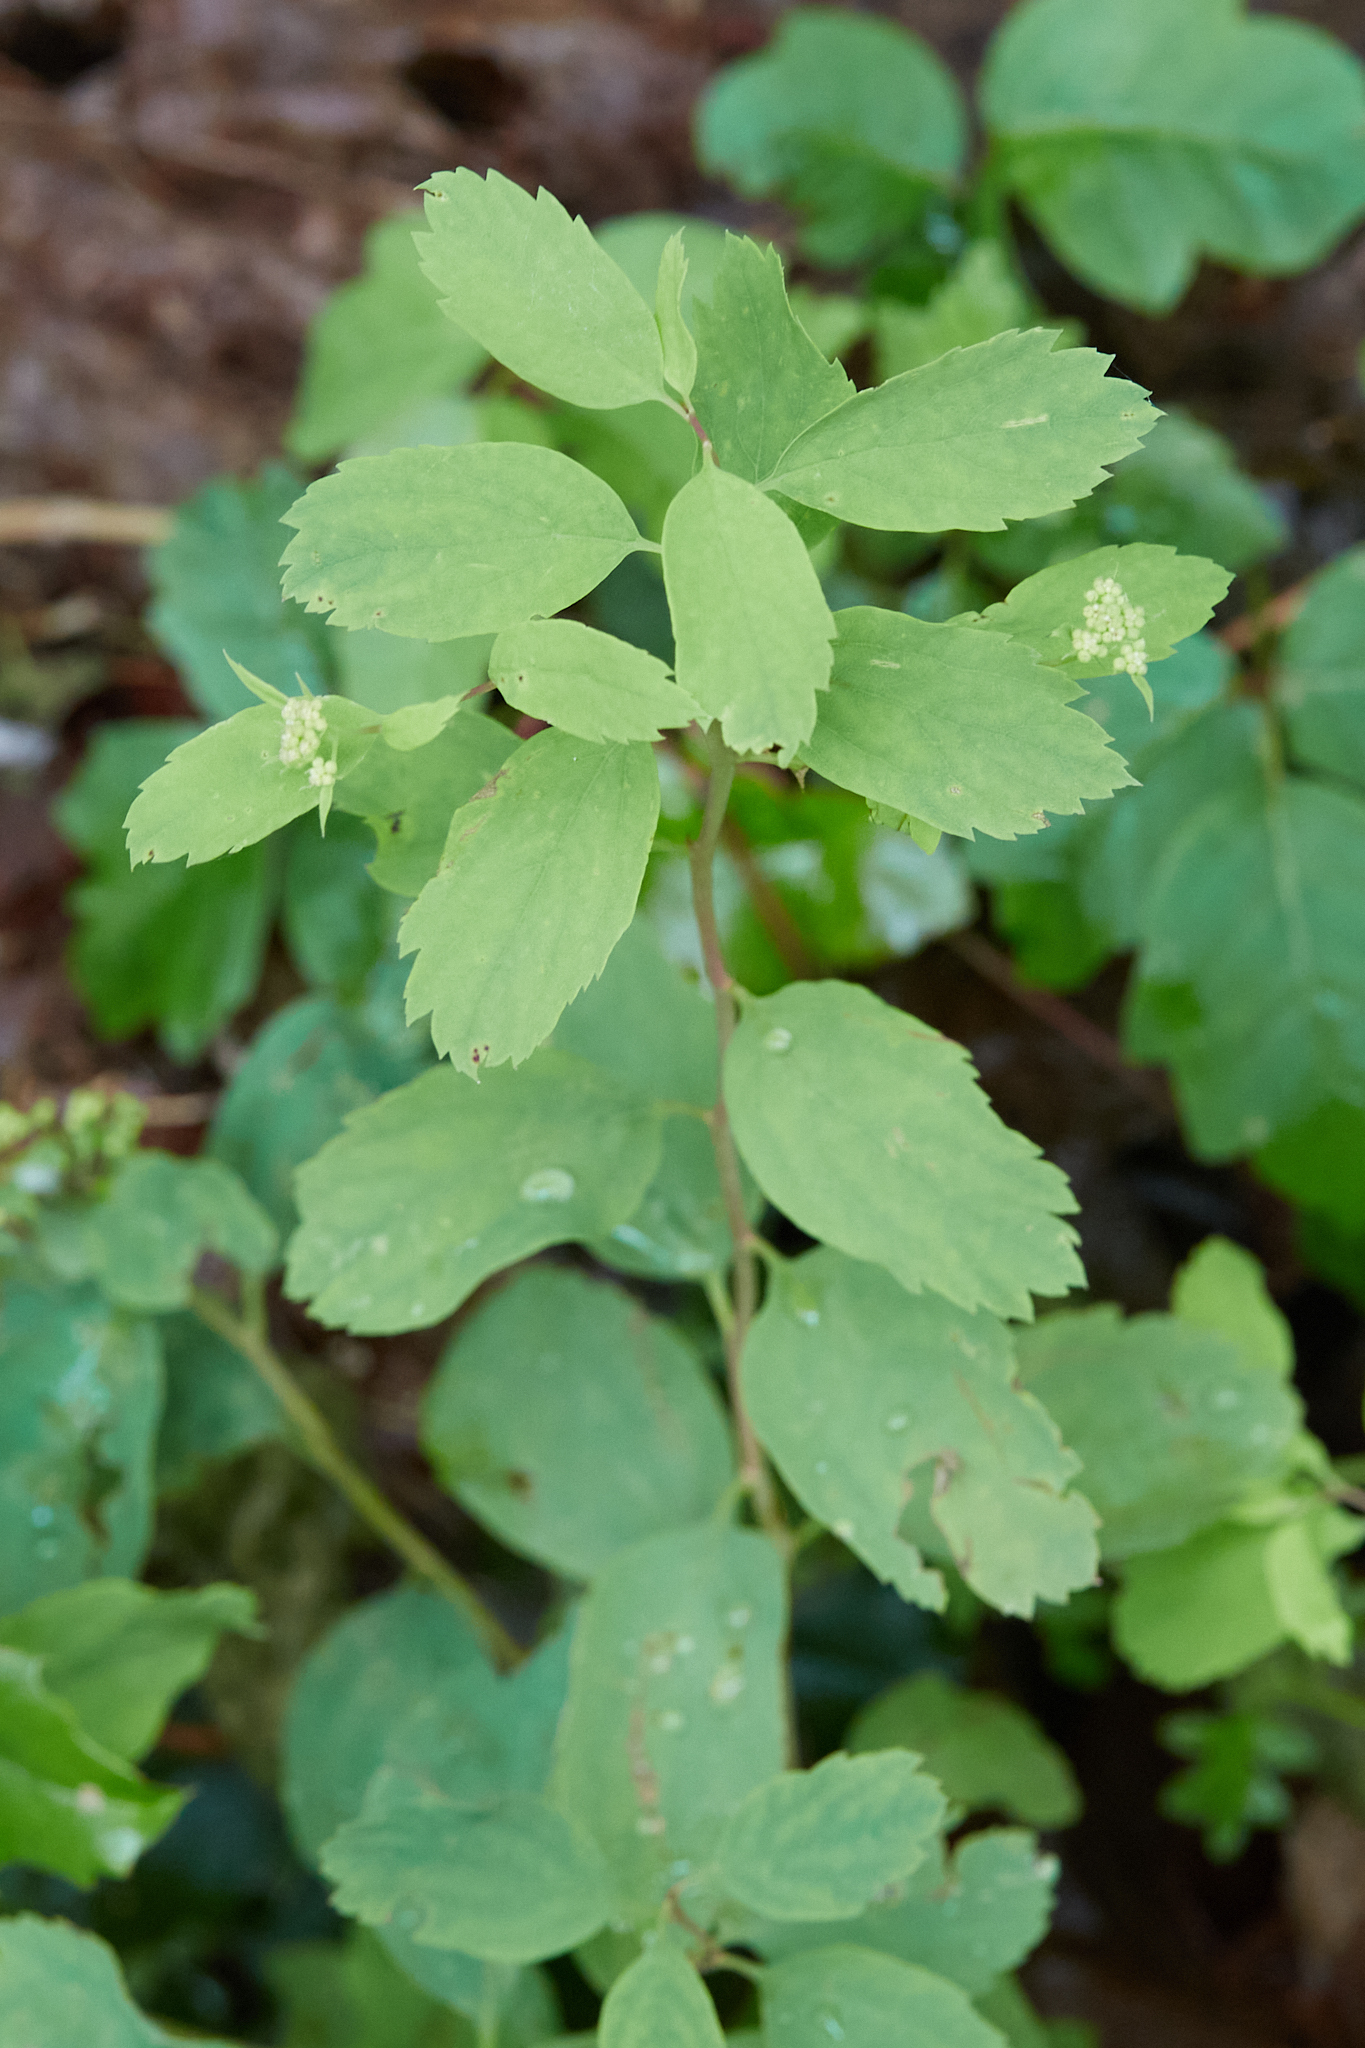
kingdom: Plantae
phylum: Tracheophyta
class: Magnoliopsida
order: Rosales
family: Rosaceae
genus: Spiraea
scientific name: Spiraea lucida
